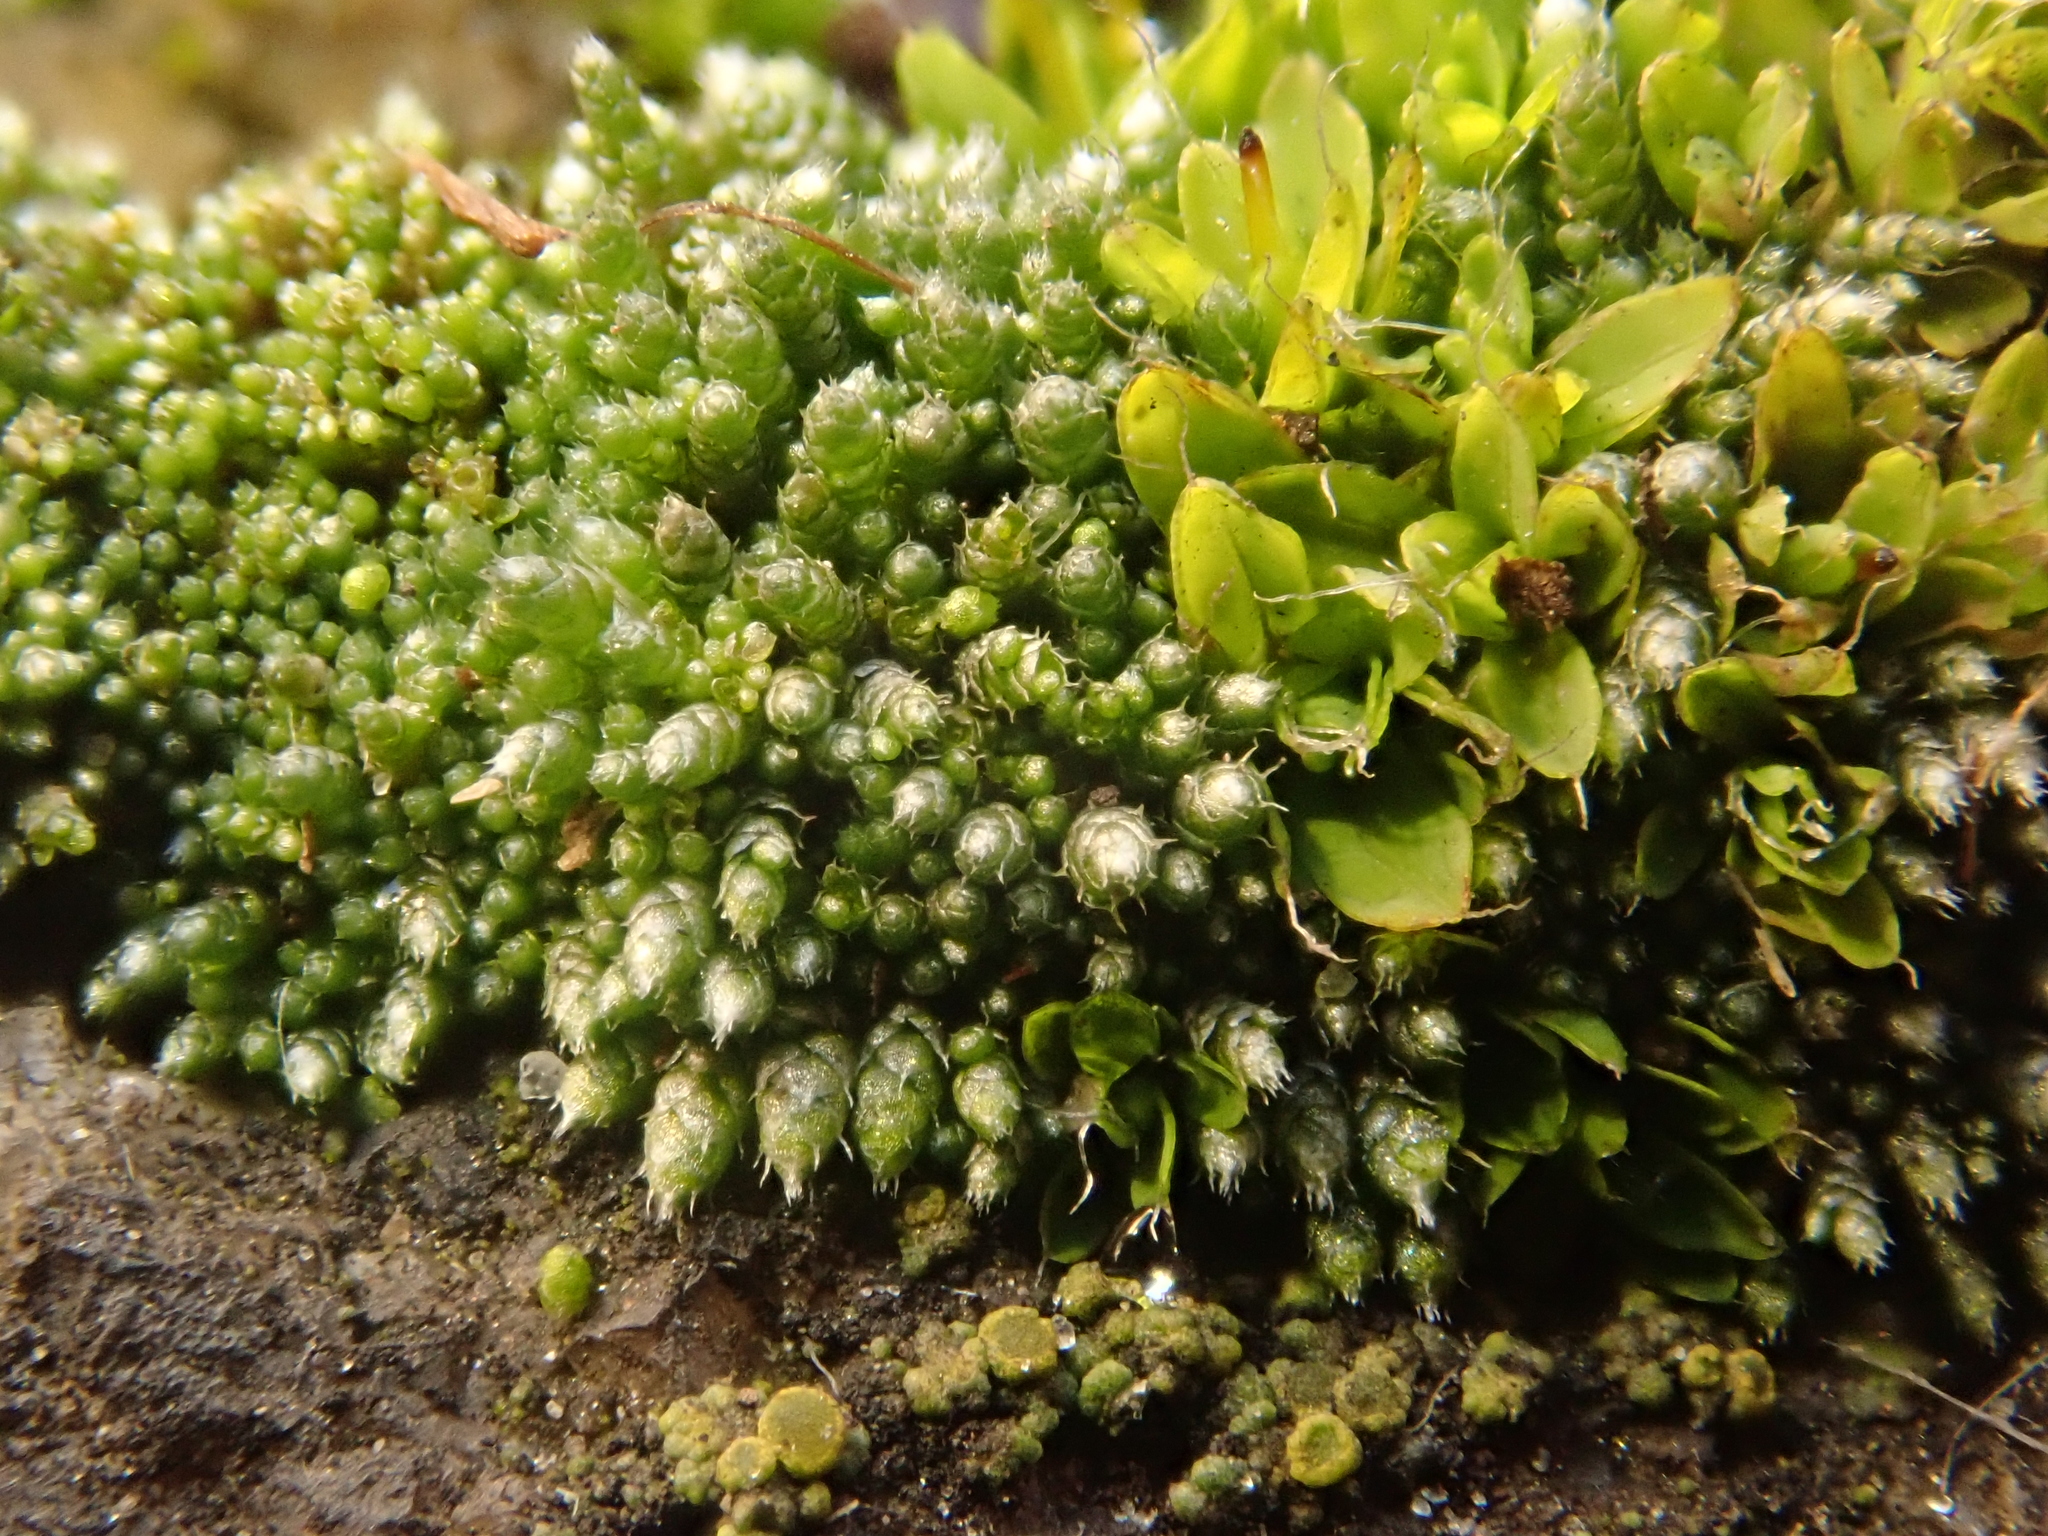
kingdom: Plantae
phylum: Bryophyta
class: Bryopsida
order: Bryales
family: Bryaceae
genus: Bryum
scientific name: Bryum argenteum
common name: Silver-moss
